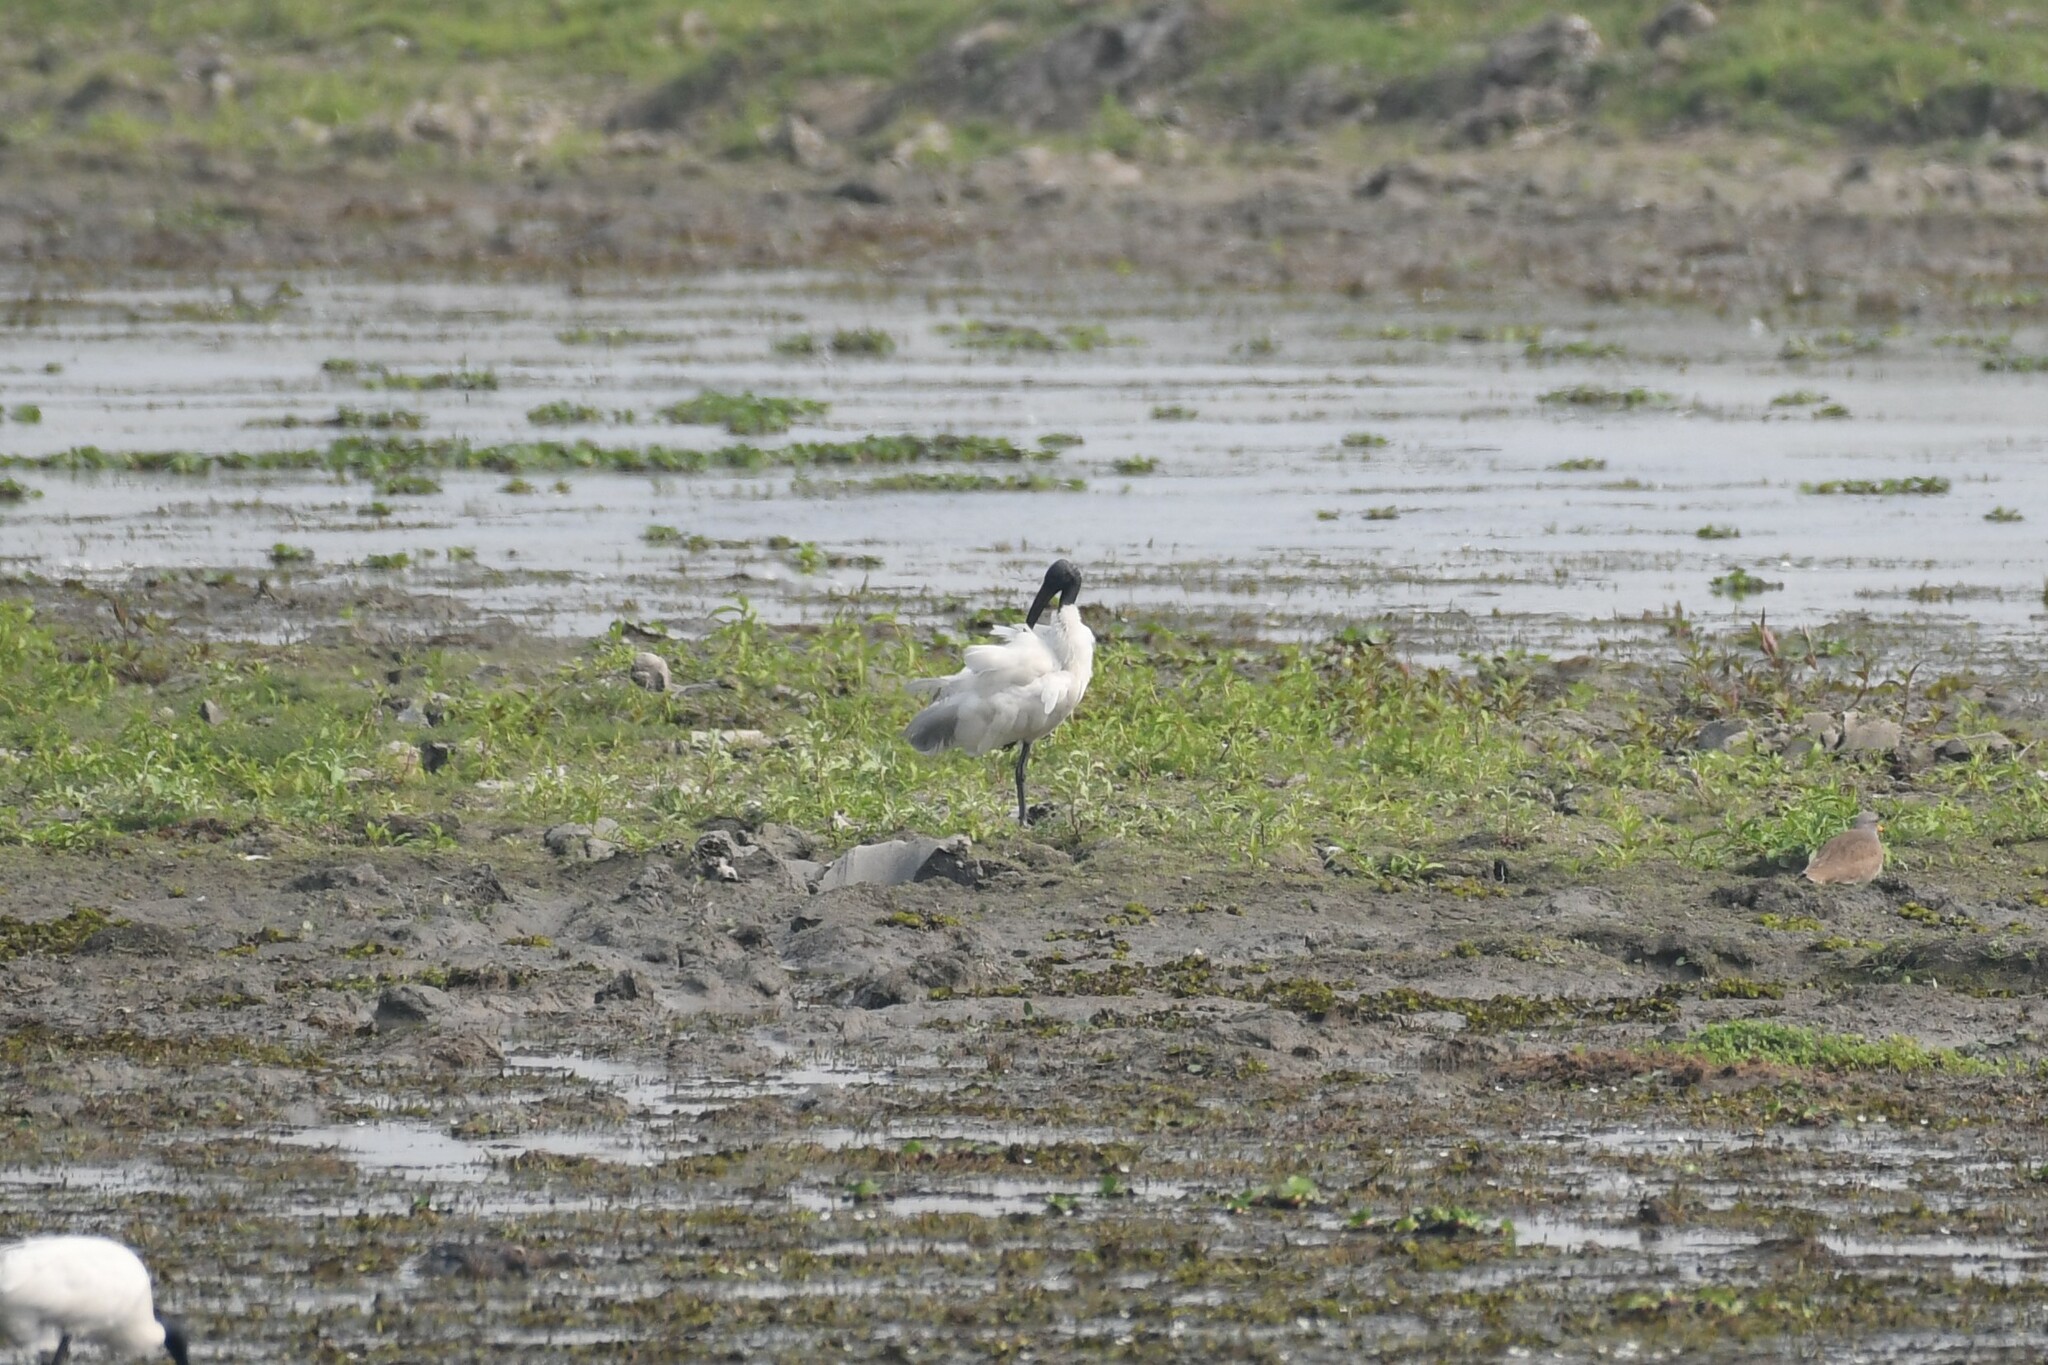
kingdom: Animalia
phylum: Chordata
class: Aves
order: Pelecaniformes
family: Threskiornithidae
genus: Threskiornis
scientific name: Threskiornis melanocephalus
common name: Black-headed ibis
